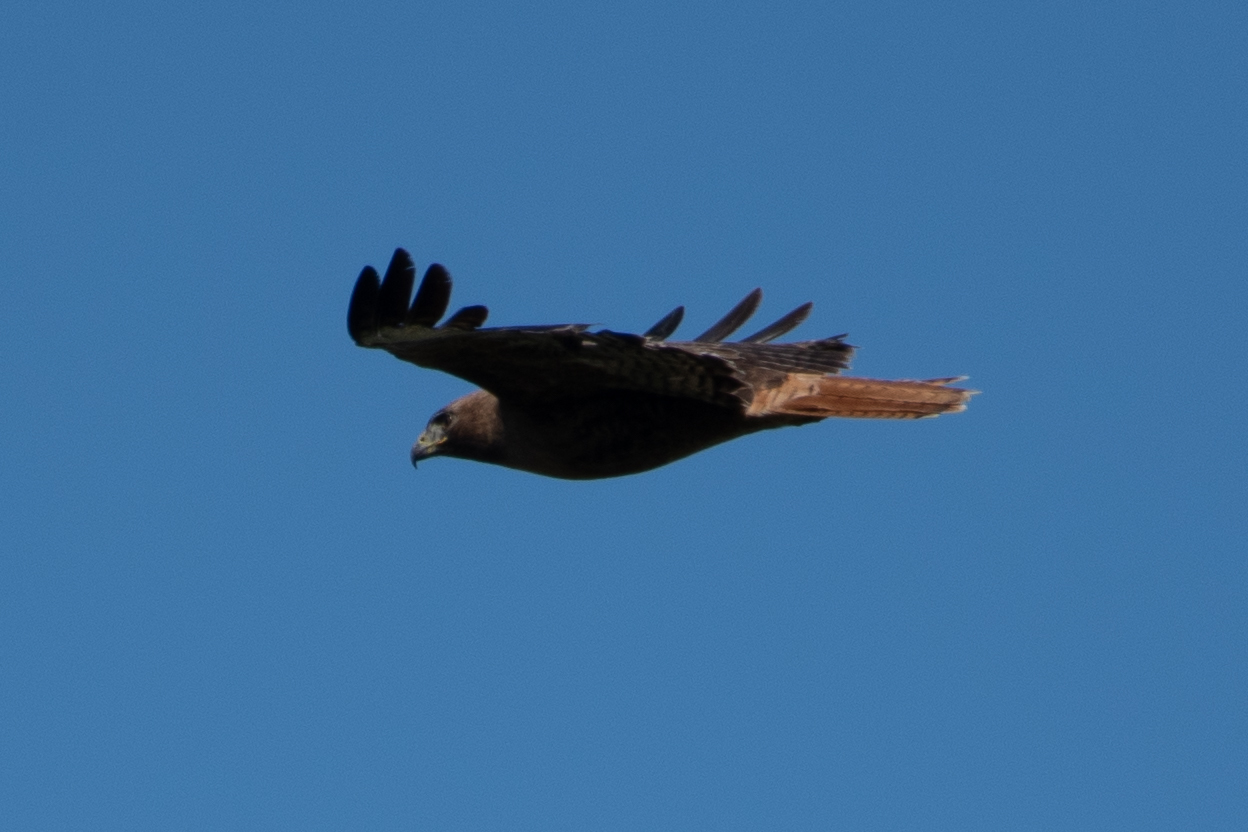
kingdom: Animalia
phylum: Chordata
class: Aves
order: Accipitriformes
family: Accipitridae
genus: Buteo
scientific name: Buteo jamaicensis
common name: Red-tailed hawk
